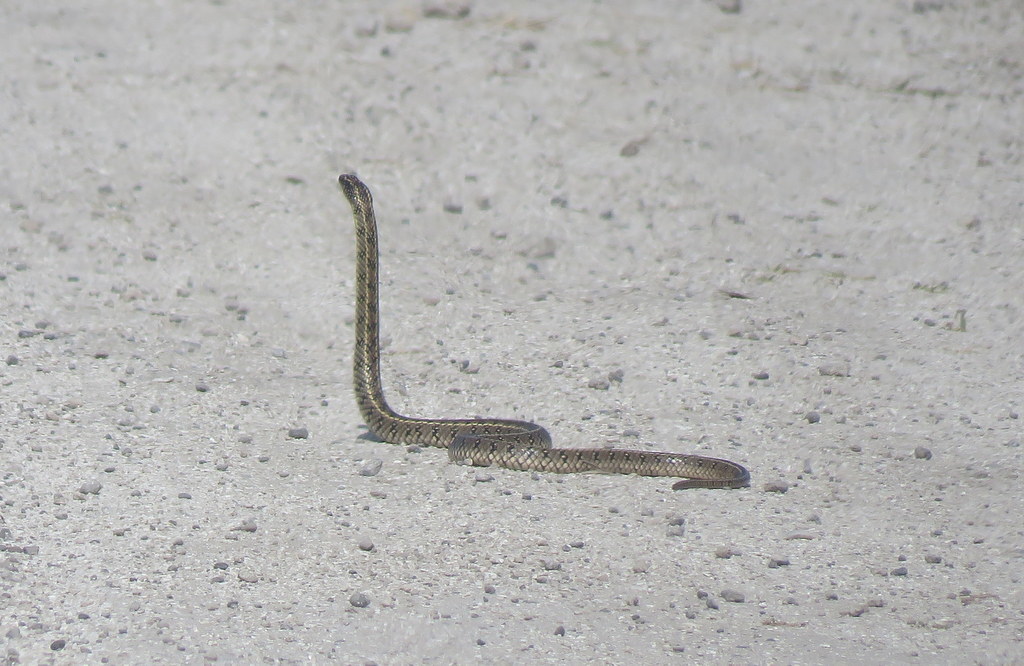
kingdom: Animalia
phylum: Chordata
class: Squamata
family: Colubridae
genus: Lygophis
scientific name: Lygophis anomalus
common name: English common name not available
